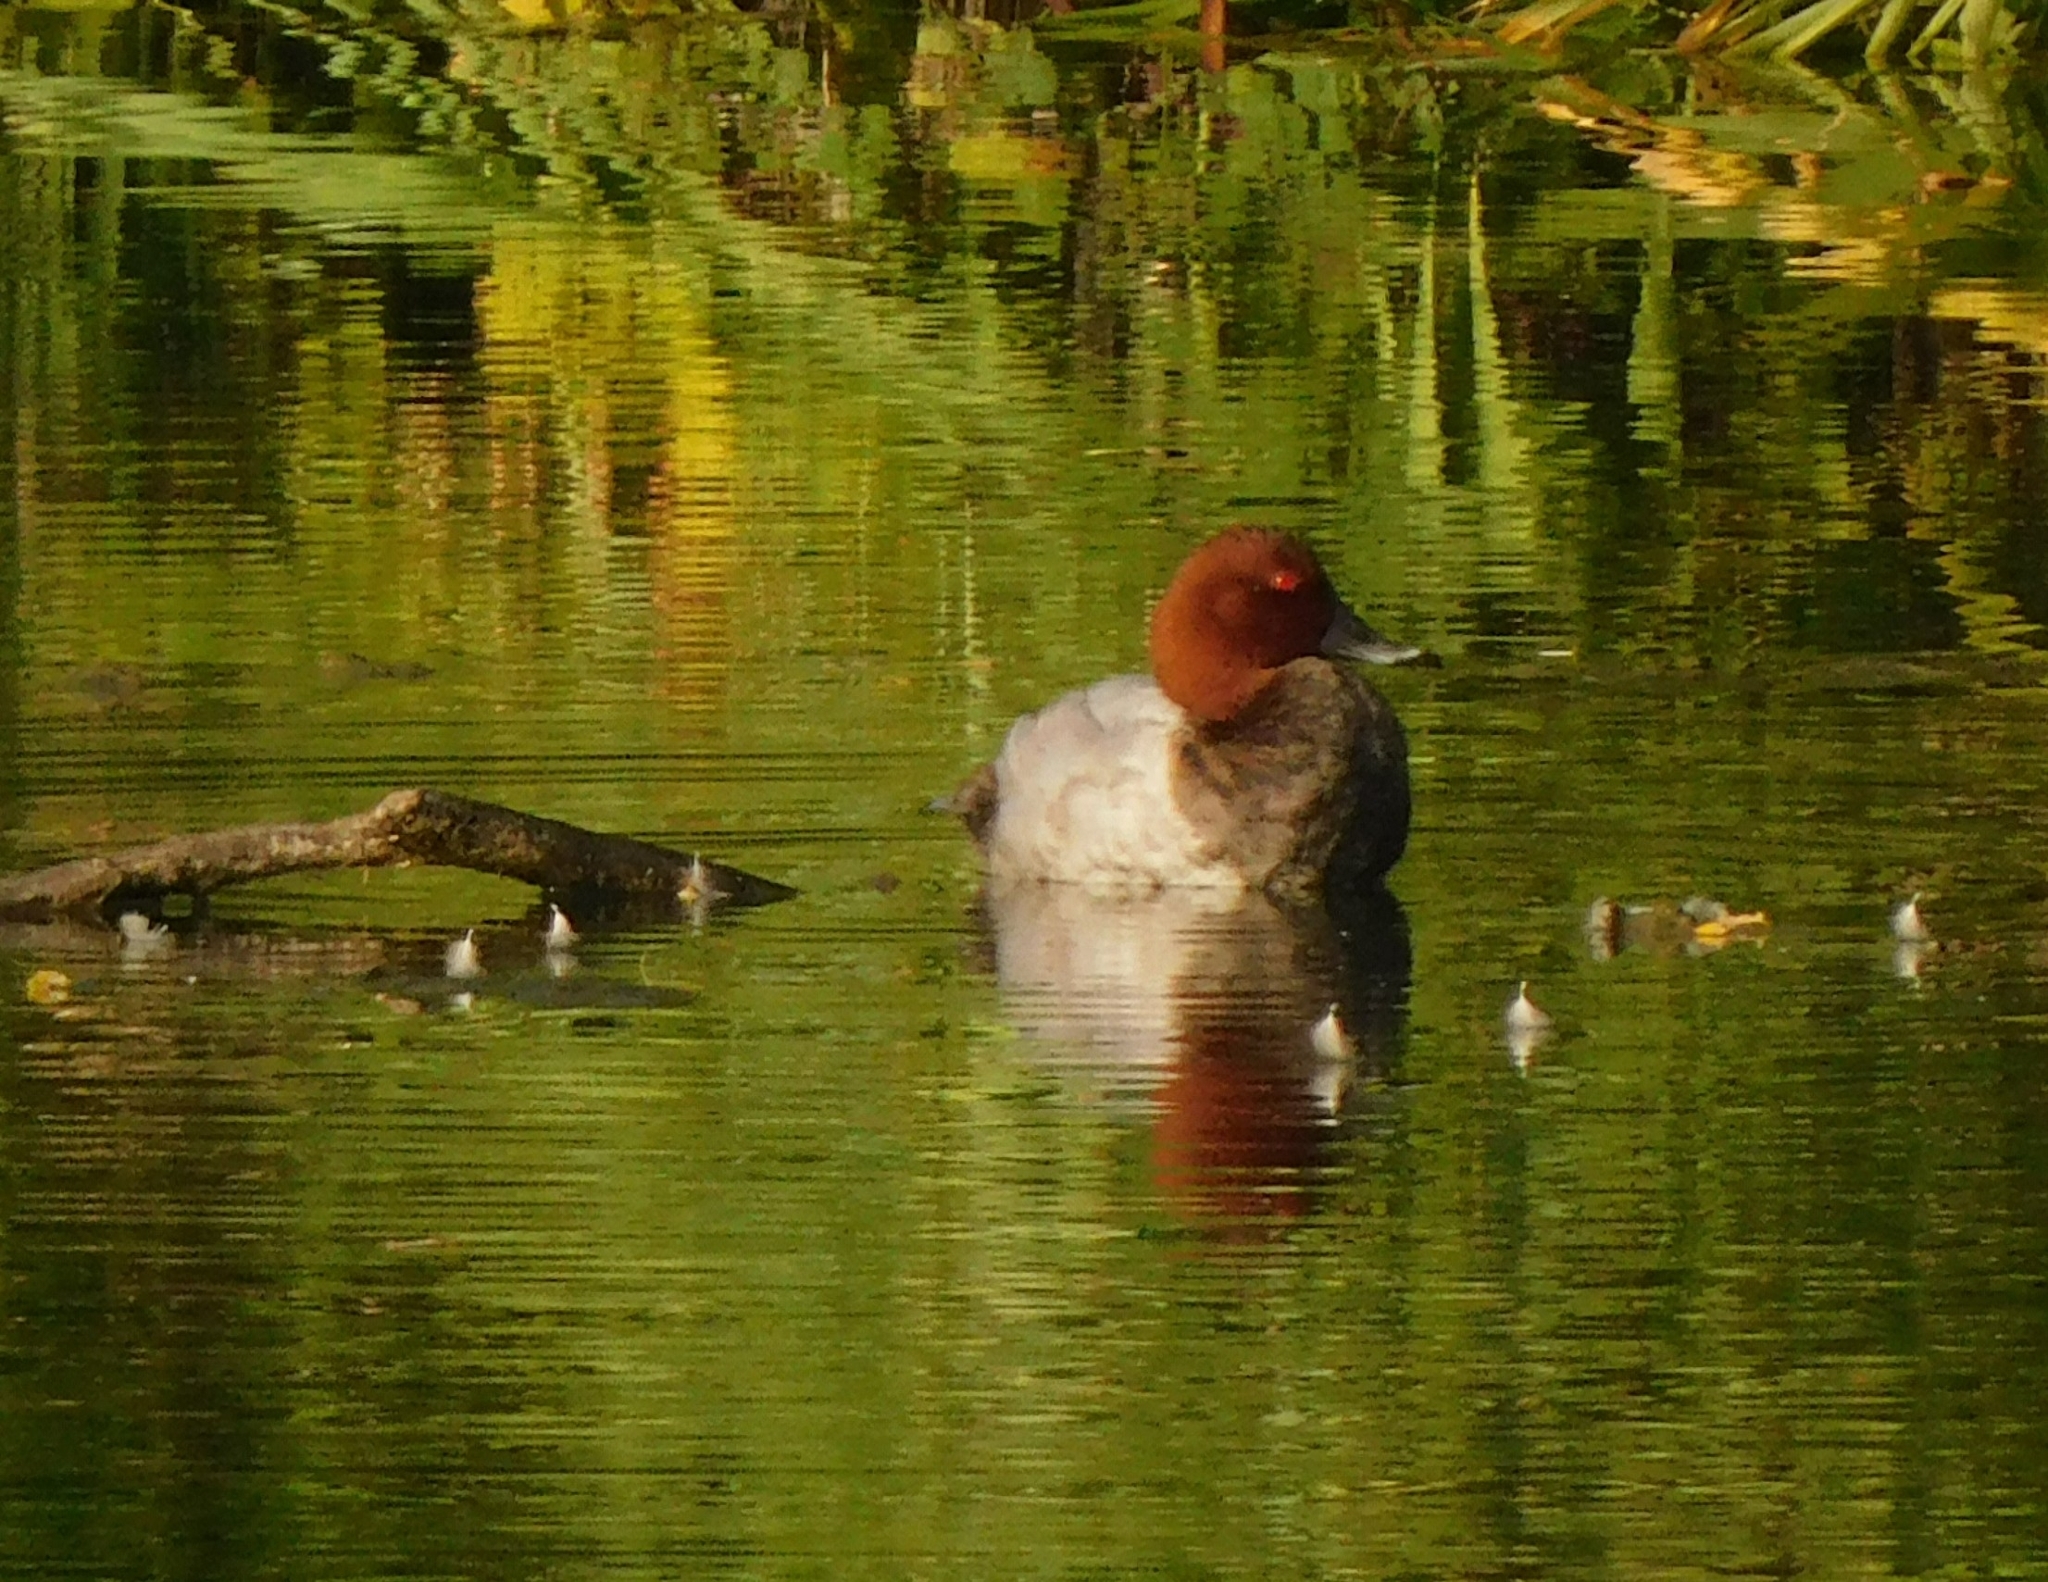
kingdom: Animalia
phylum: Chordata
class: Aves
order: Anseriformes
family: Anatidae
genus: Aythya
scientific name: Aythya ferina
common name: Common pochard
